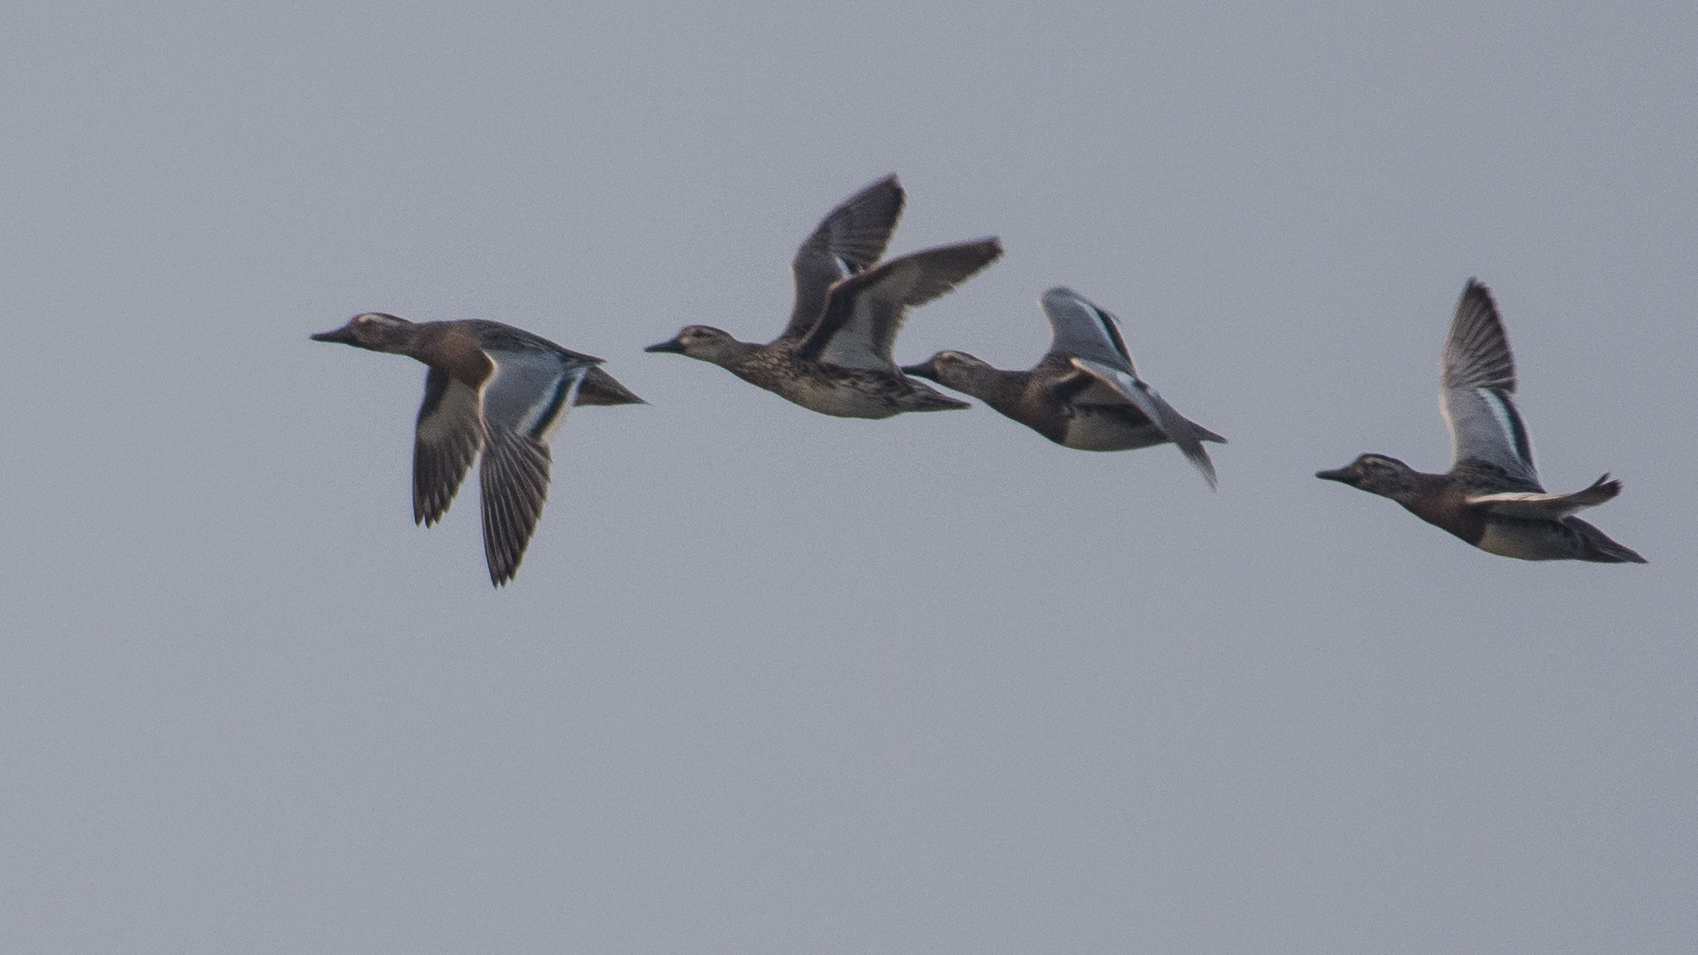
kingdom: Animalia
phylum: Chordata
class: Aves
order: Anseriformes
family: Anatidae
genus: Spatula
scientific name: Spatula querquedula
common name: Garganey
